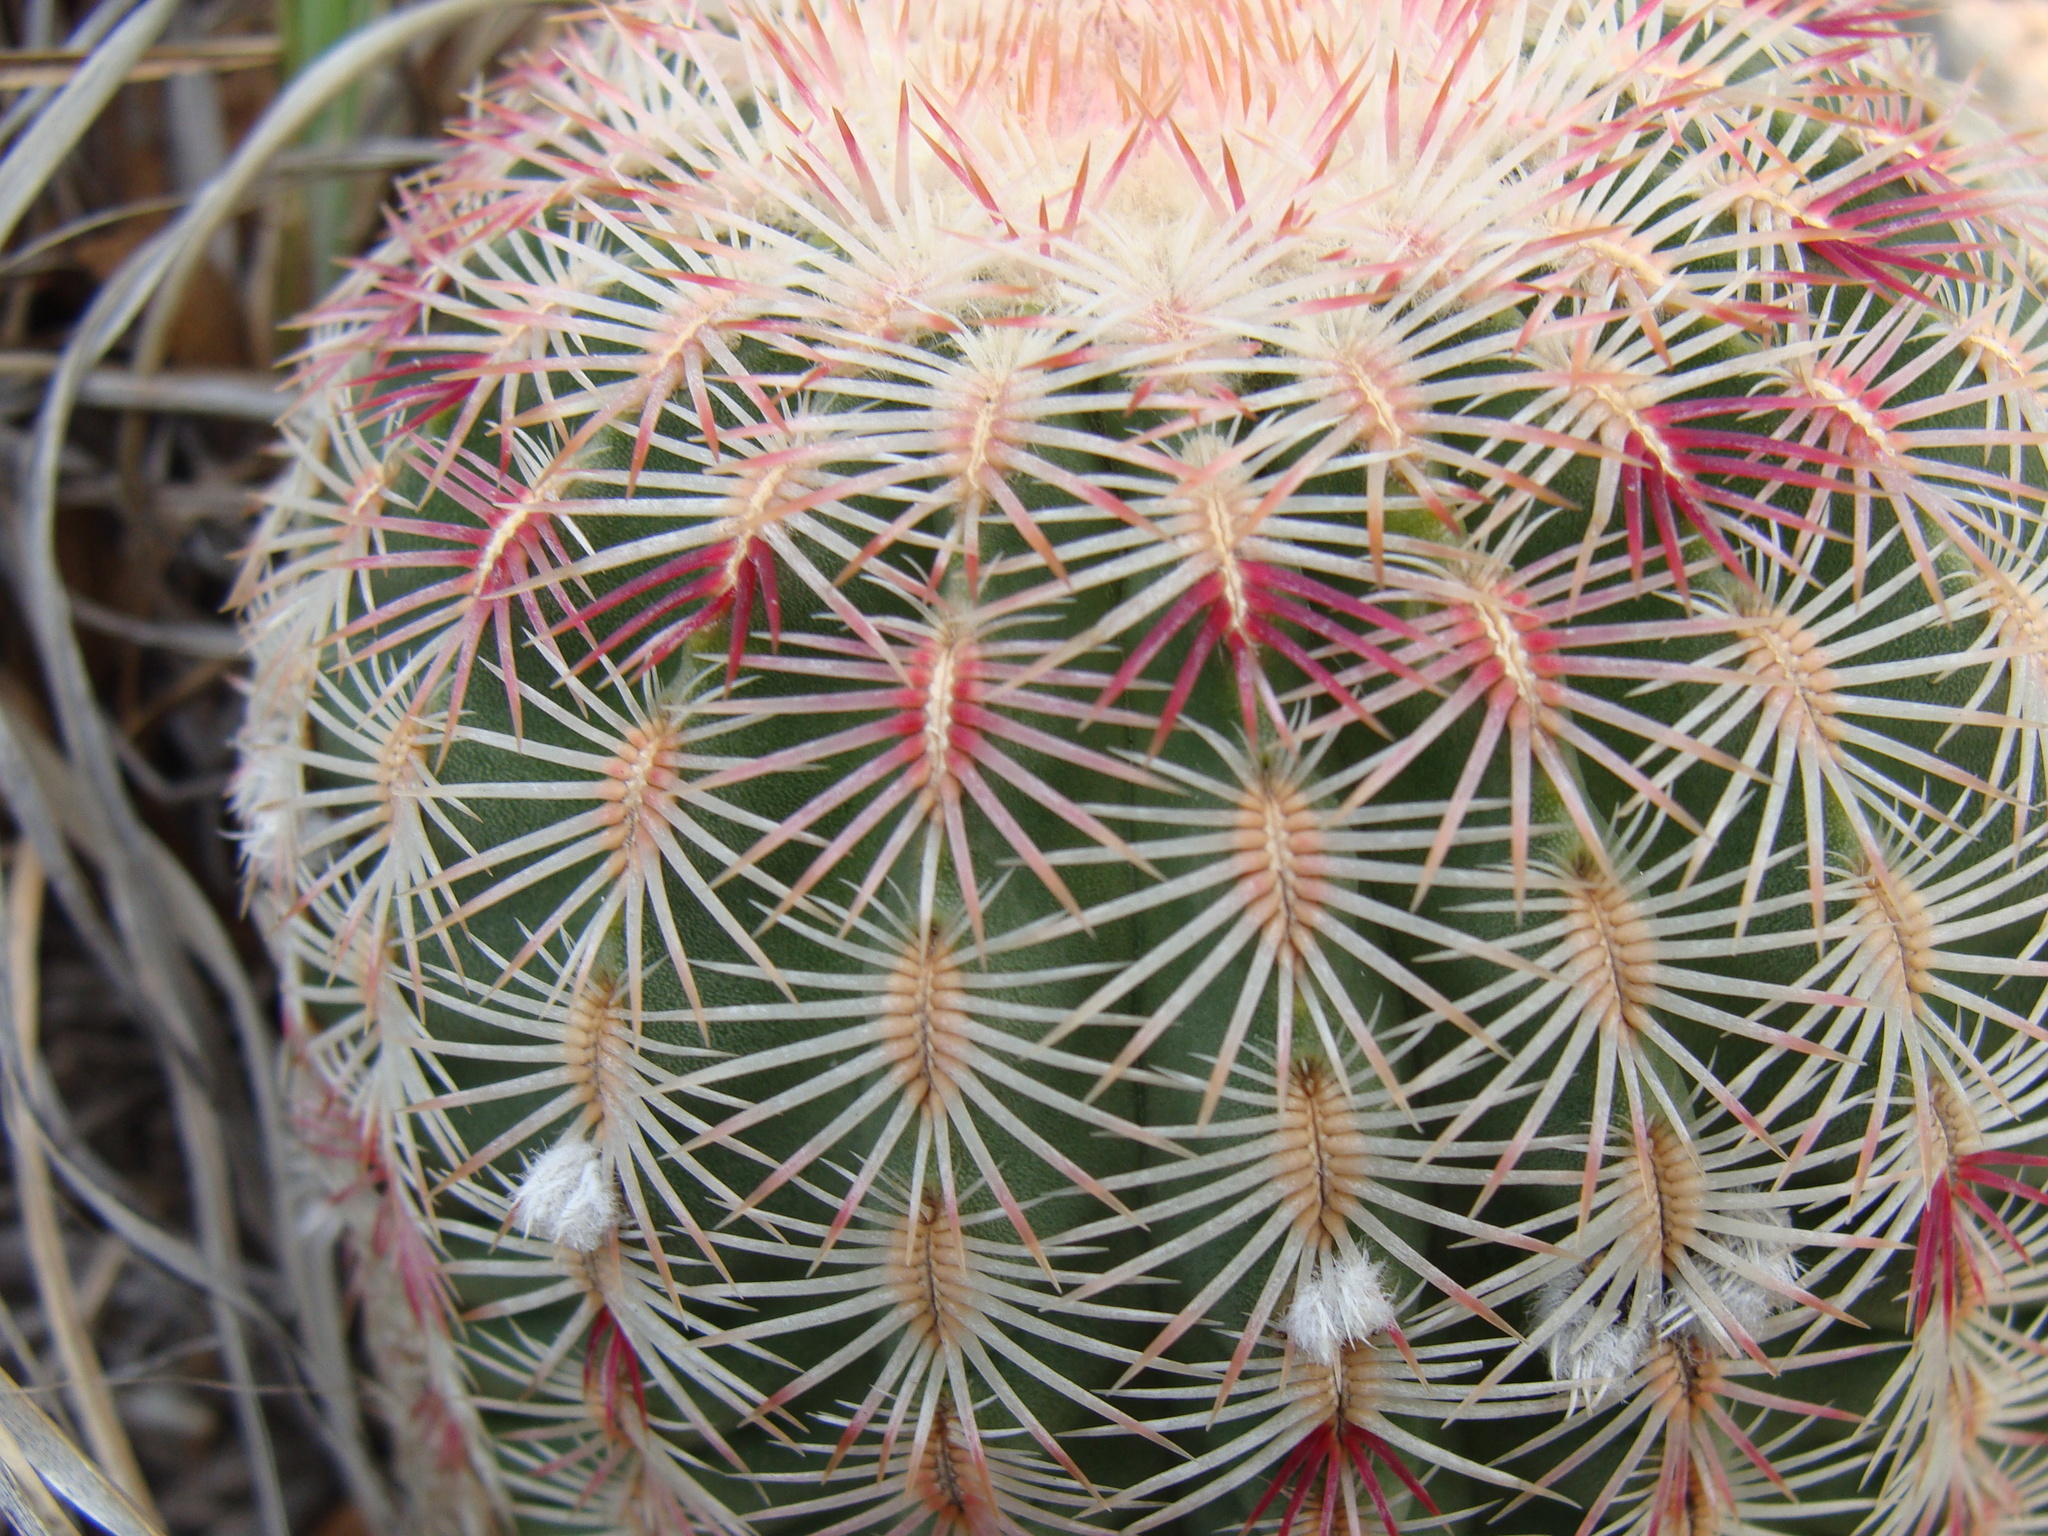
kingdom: Plantae
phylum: Tracheophyta
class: Magnoliopsida
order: Caryophyllales
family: Cactaceae
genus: Echinocereus
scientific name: Echinocereus rigidissimus
